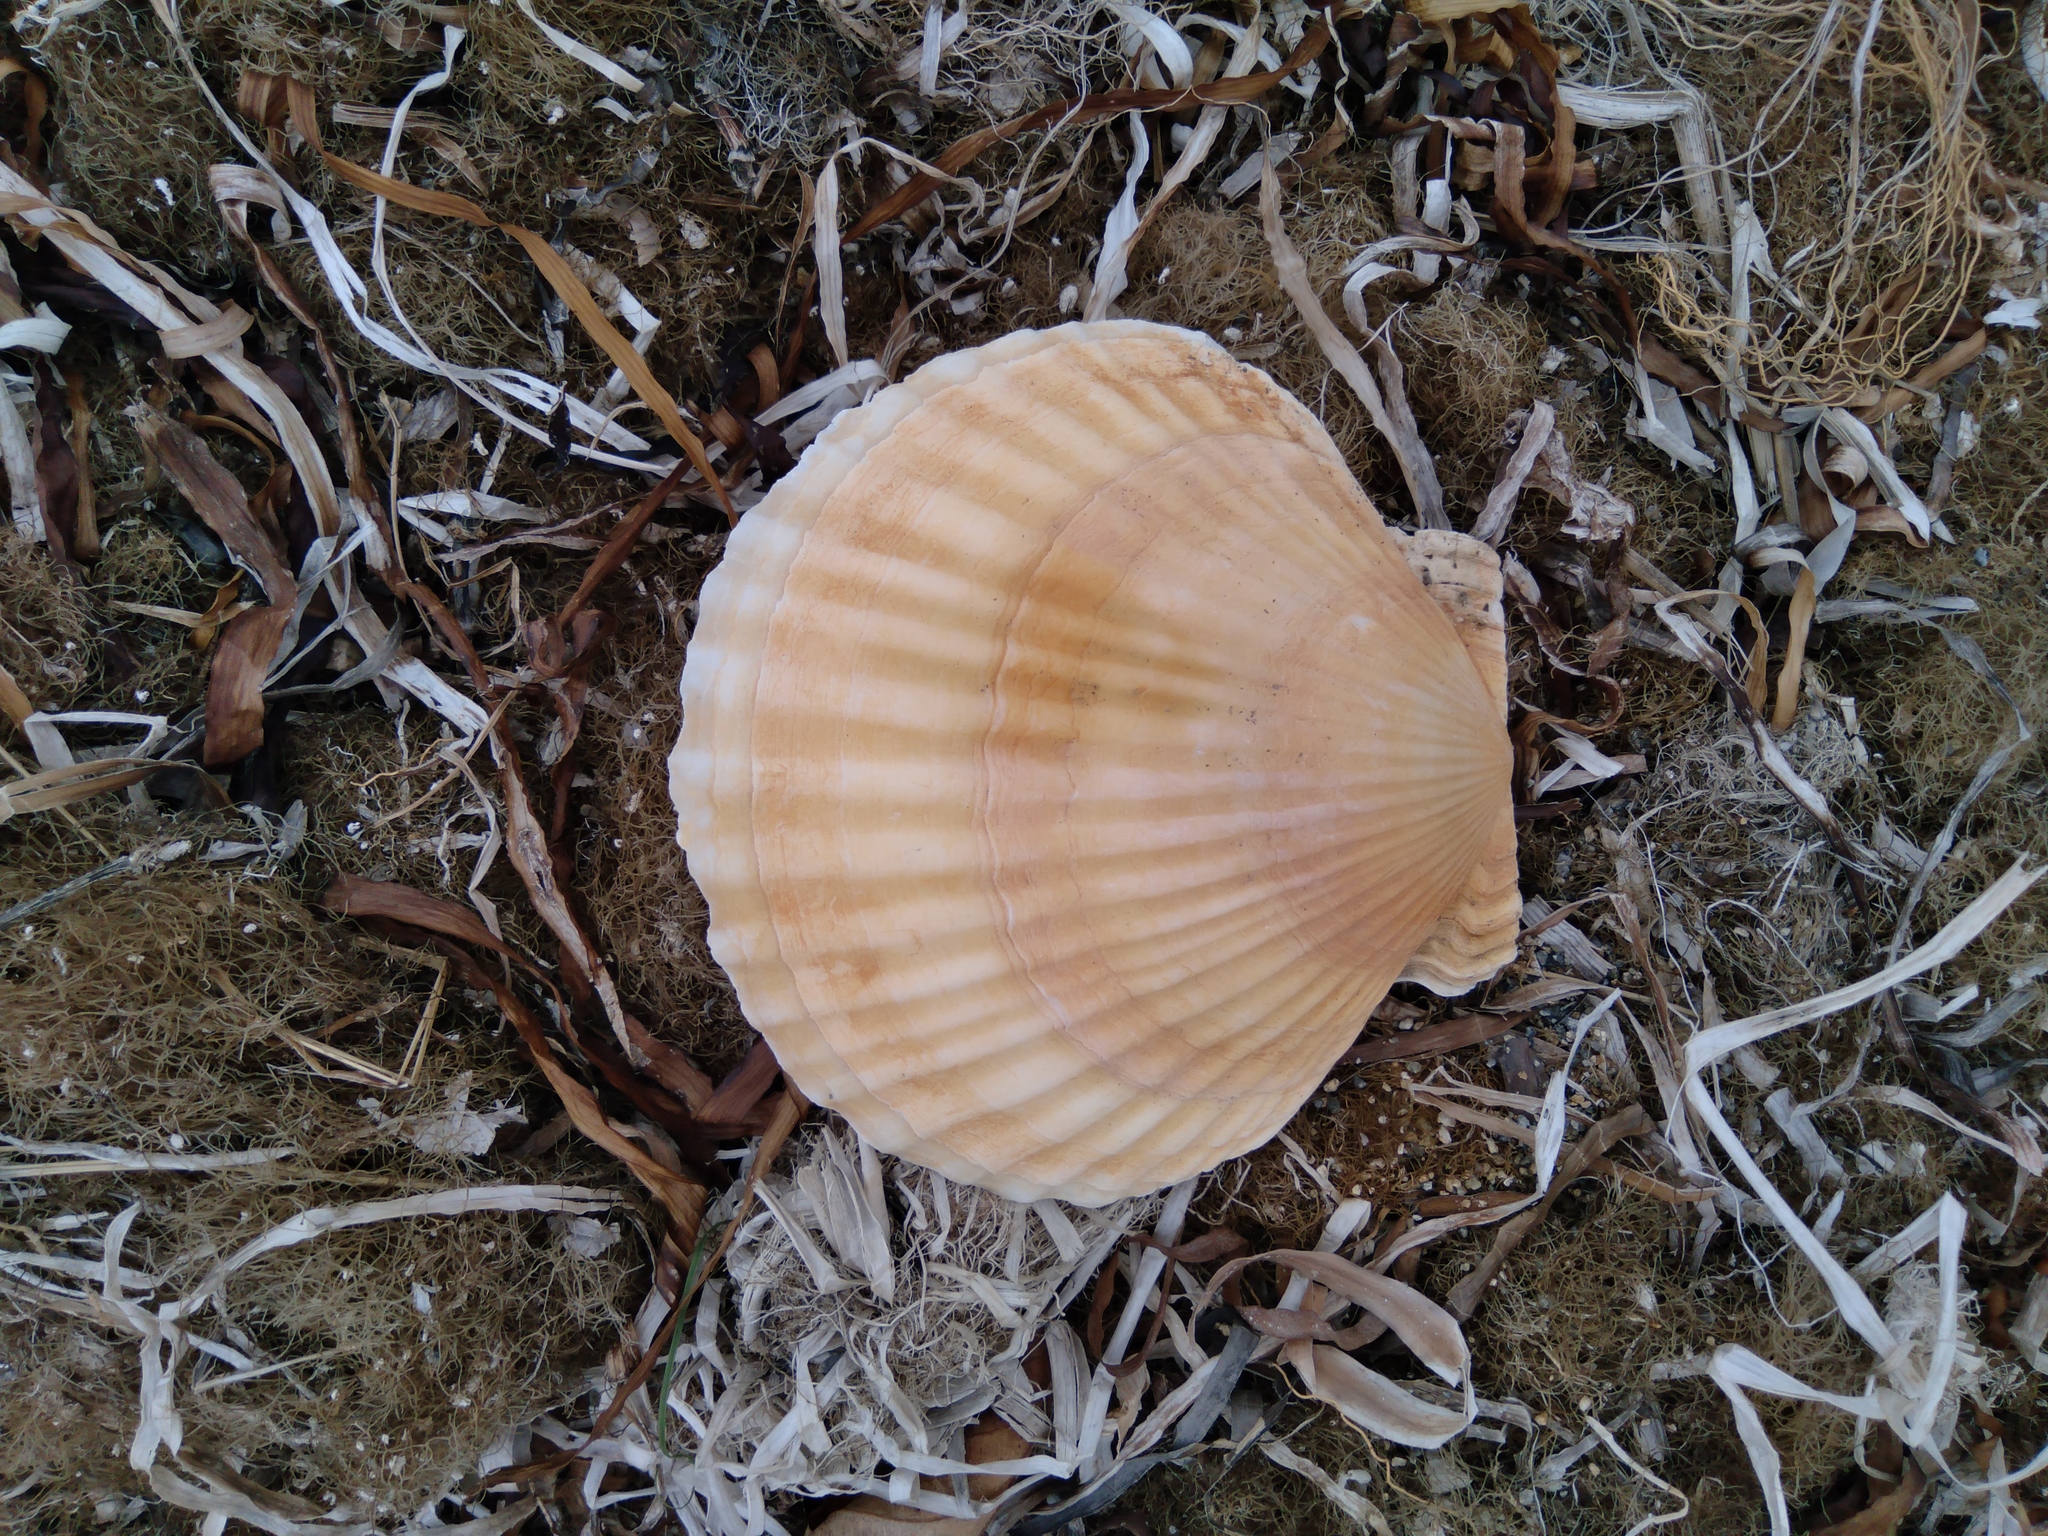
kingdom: Animalia
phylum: Mollusca
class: Bivalvia
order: Pectinida
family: Pectinidae
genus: Mizuhopecten
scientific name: Mizuhopecten yessoensis
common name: Ezo giant scallop
